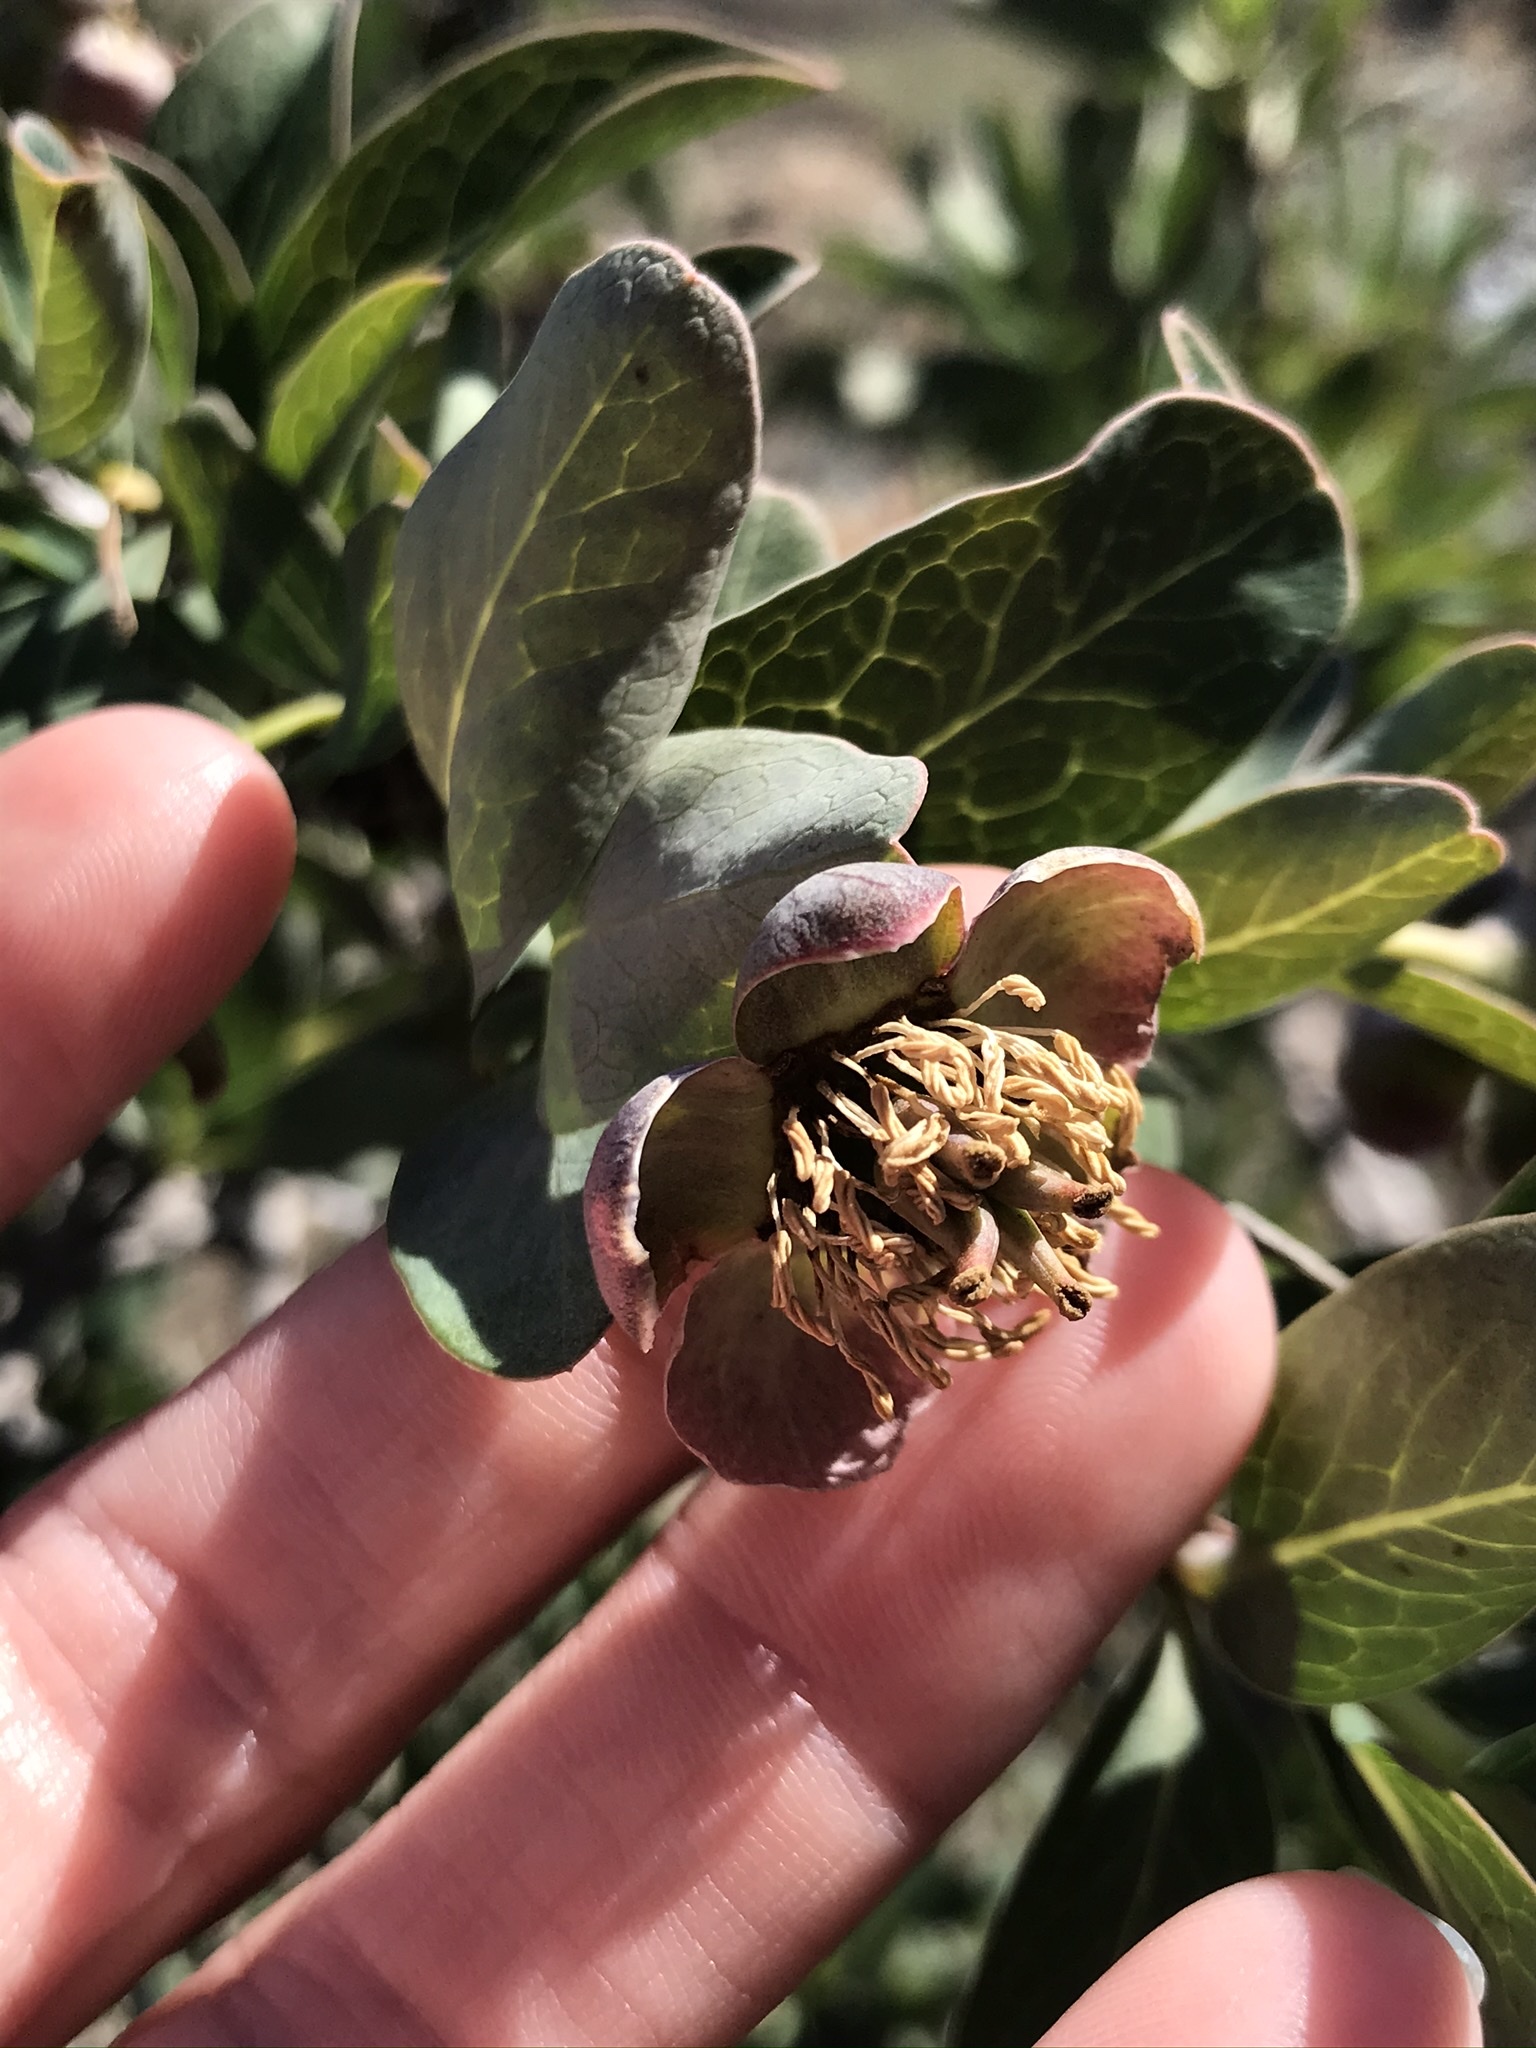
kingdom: Plantae
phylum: Tracheophyta
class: Magnoliopsida
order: Crossosomatales
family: Crossosomataceae
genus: Crossosoma
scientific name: Crossosoma californicum
